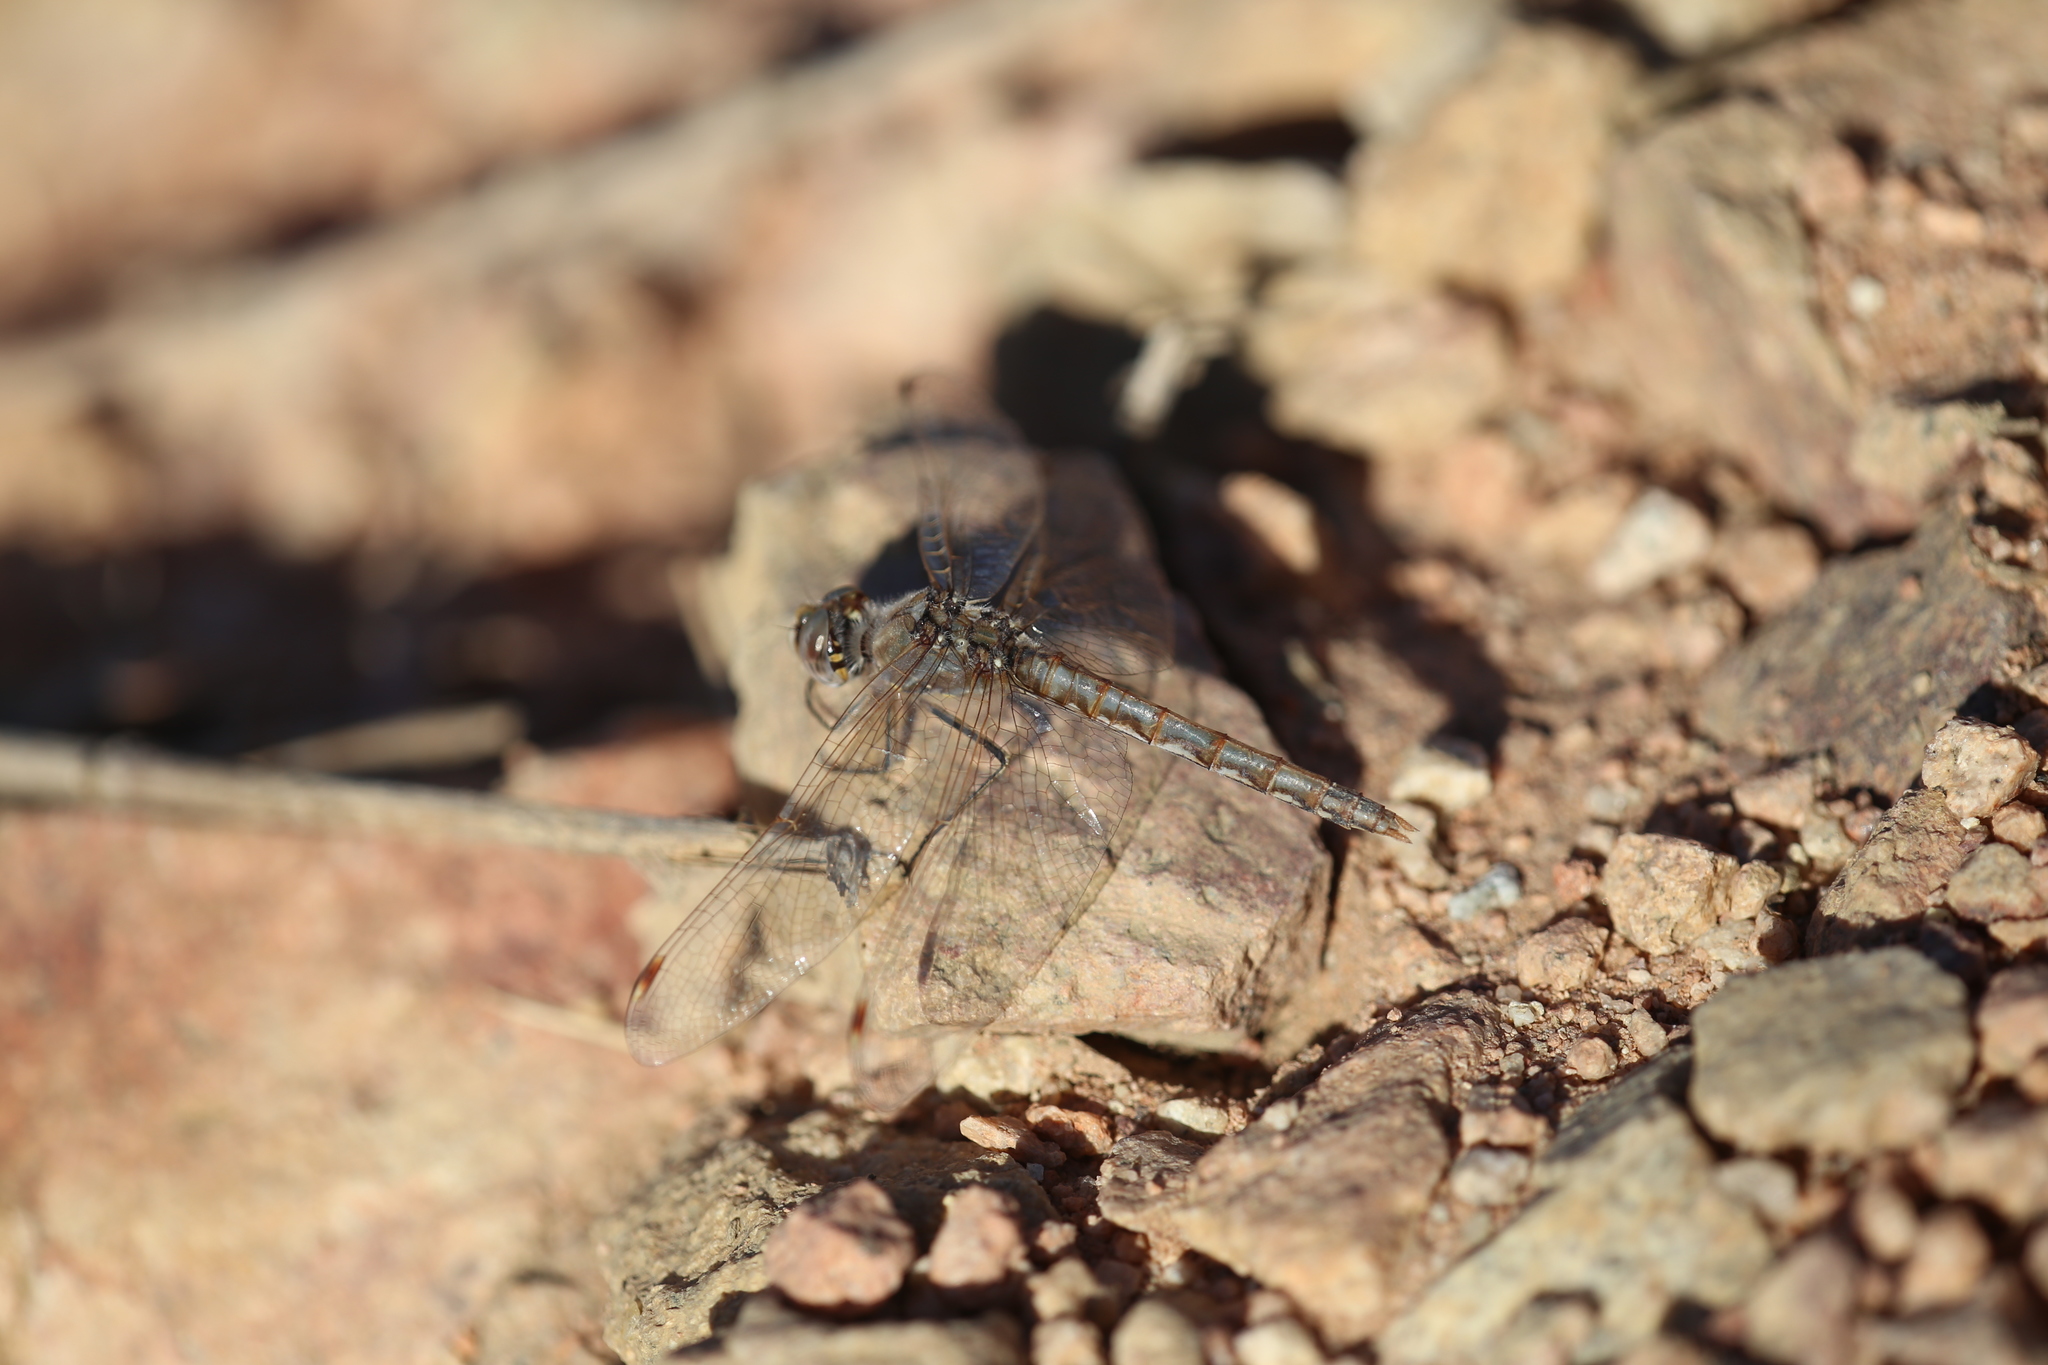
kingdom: Animalia
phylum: Arthropoda
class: Insecta
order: Odonata
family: Libellulidae
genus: Sympetrum
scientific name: Sympetrum corruptum
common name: Variegated meadowhawk
